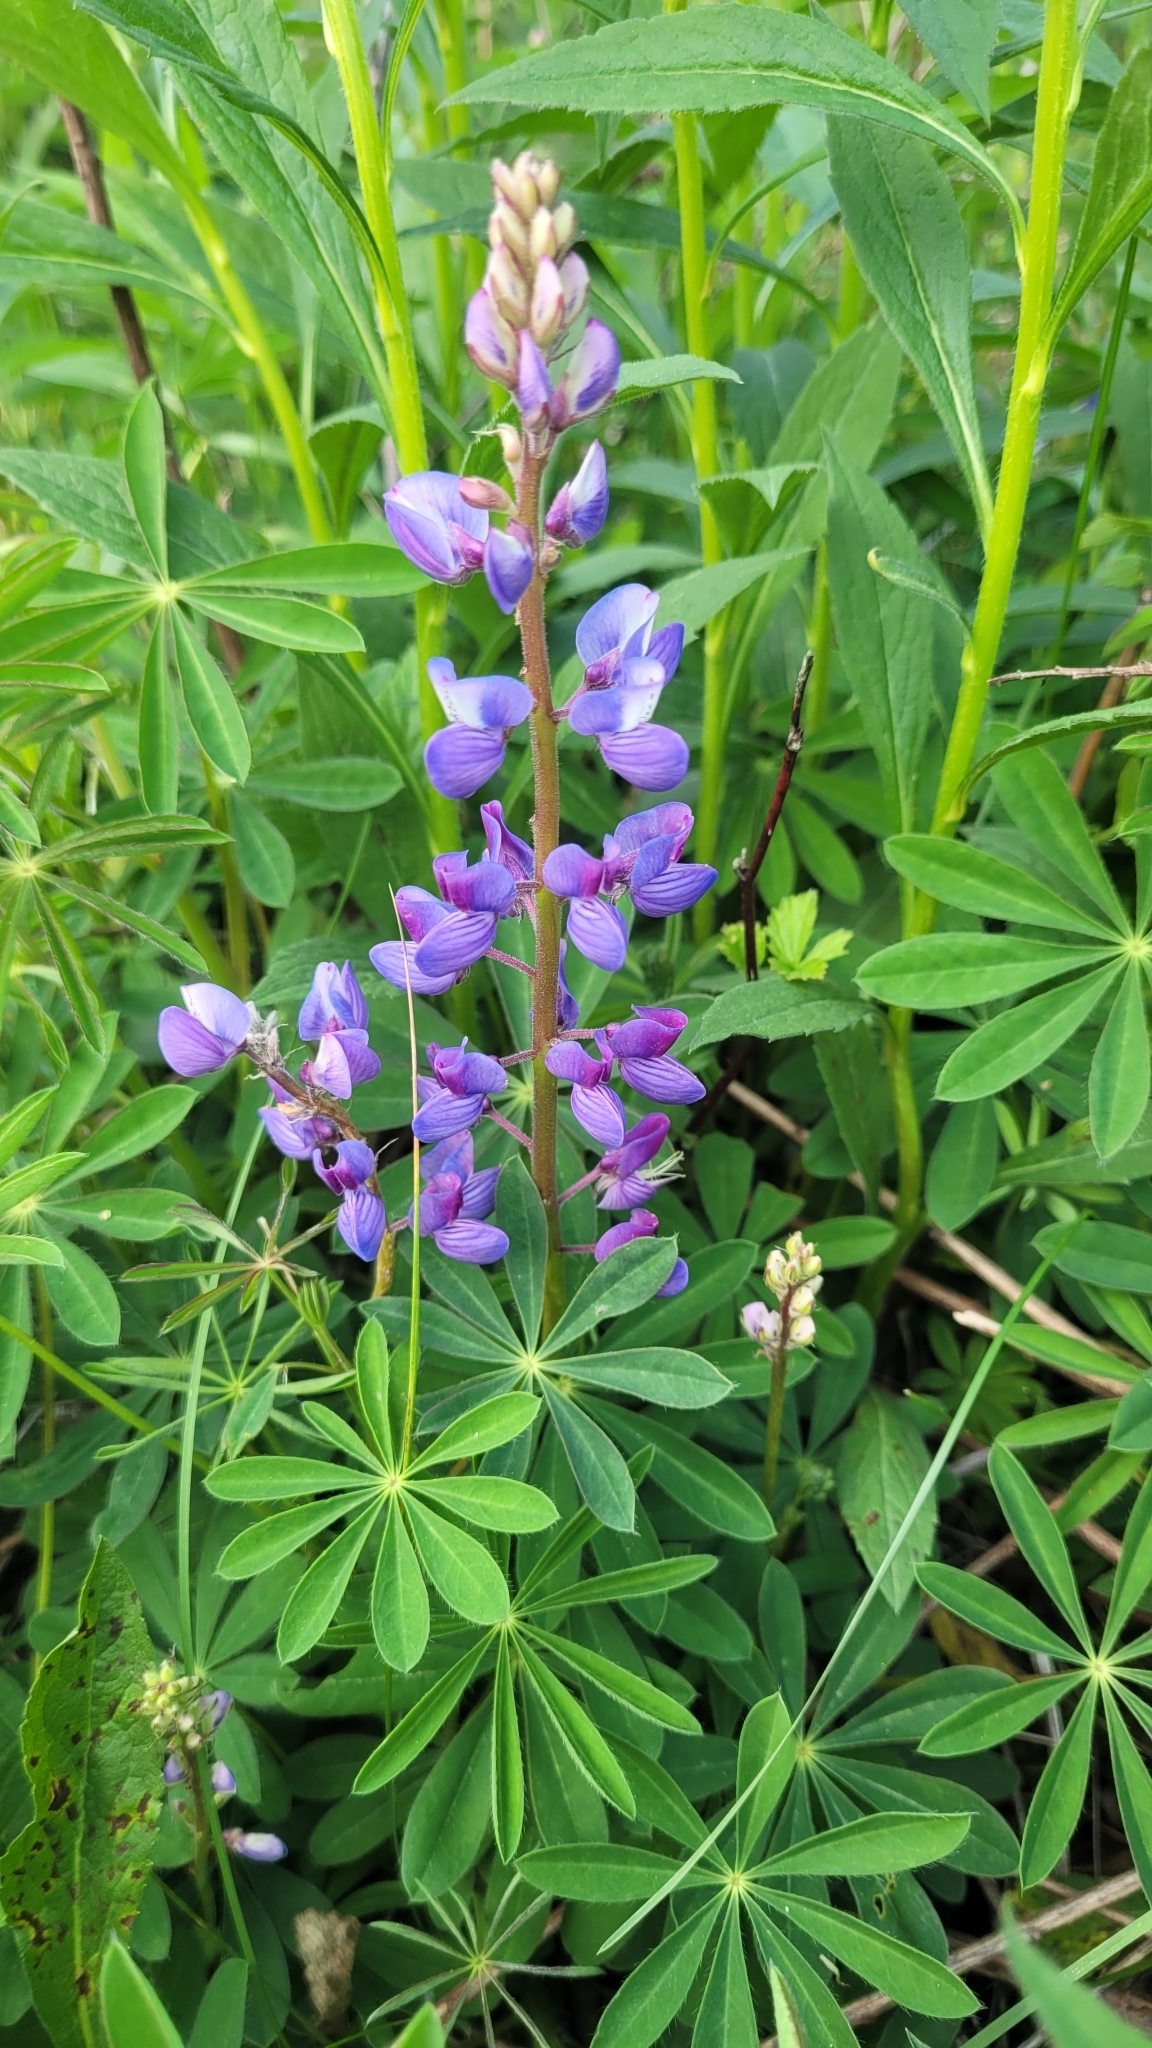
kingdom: Plantae
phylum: Tracheophyta
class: Magnoliopsida
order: Fabales
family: Fabaceae
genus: Lupinus
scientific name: Lupinus perennis
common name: Sundial lupine
